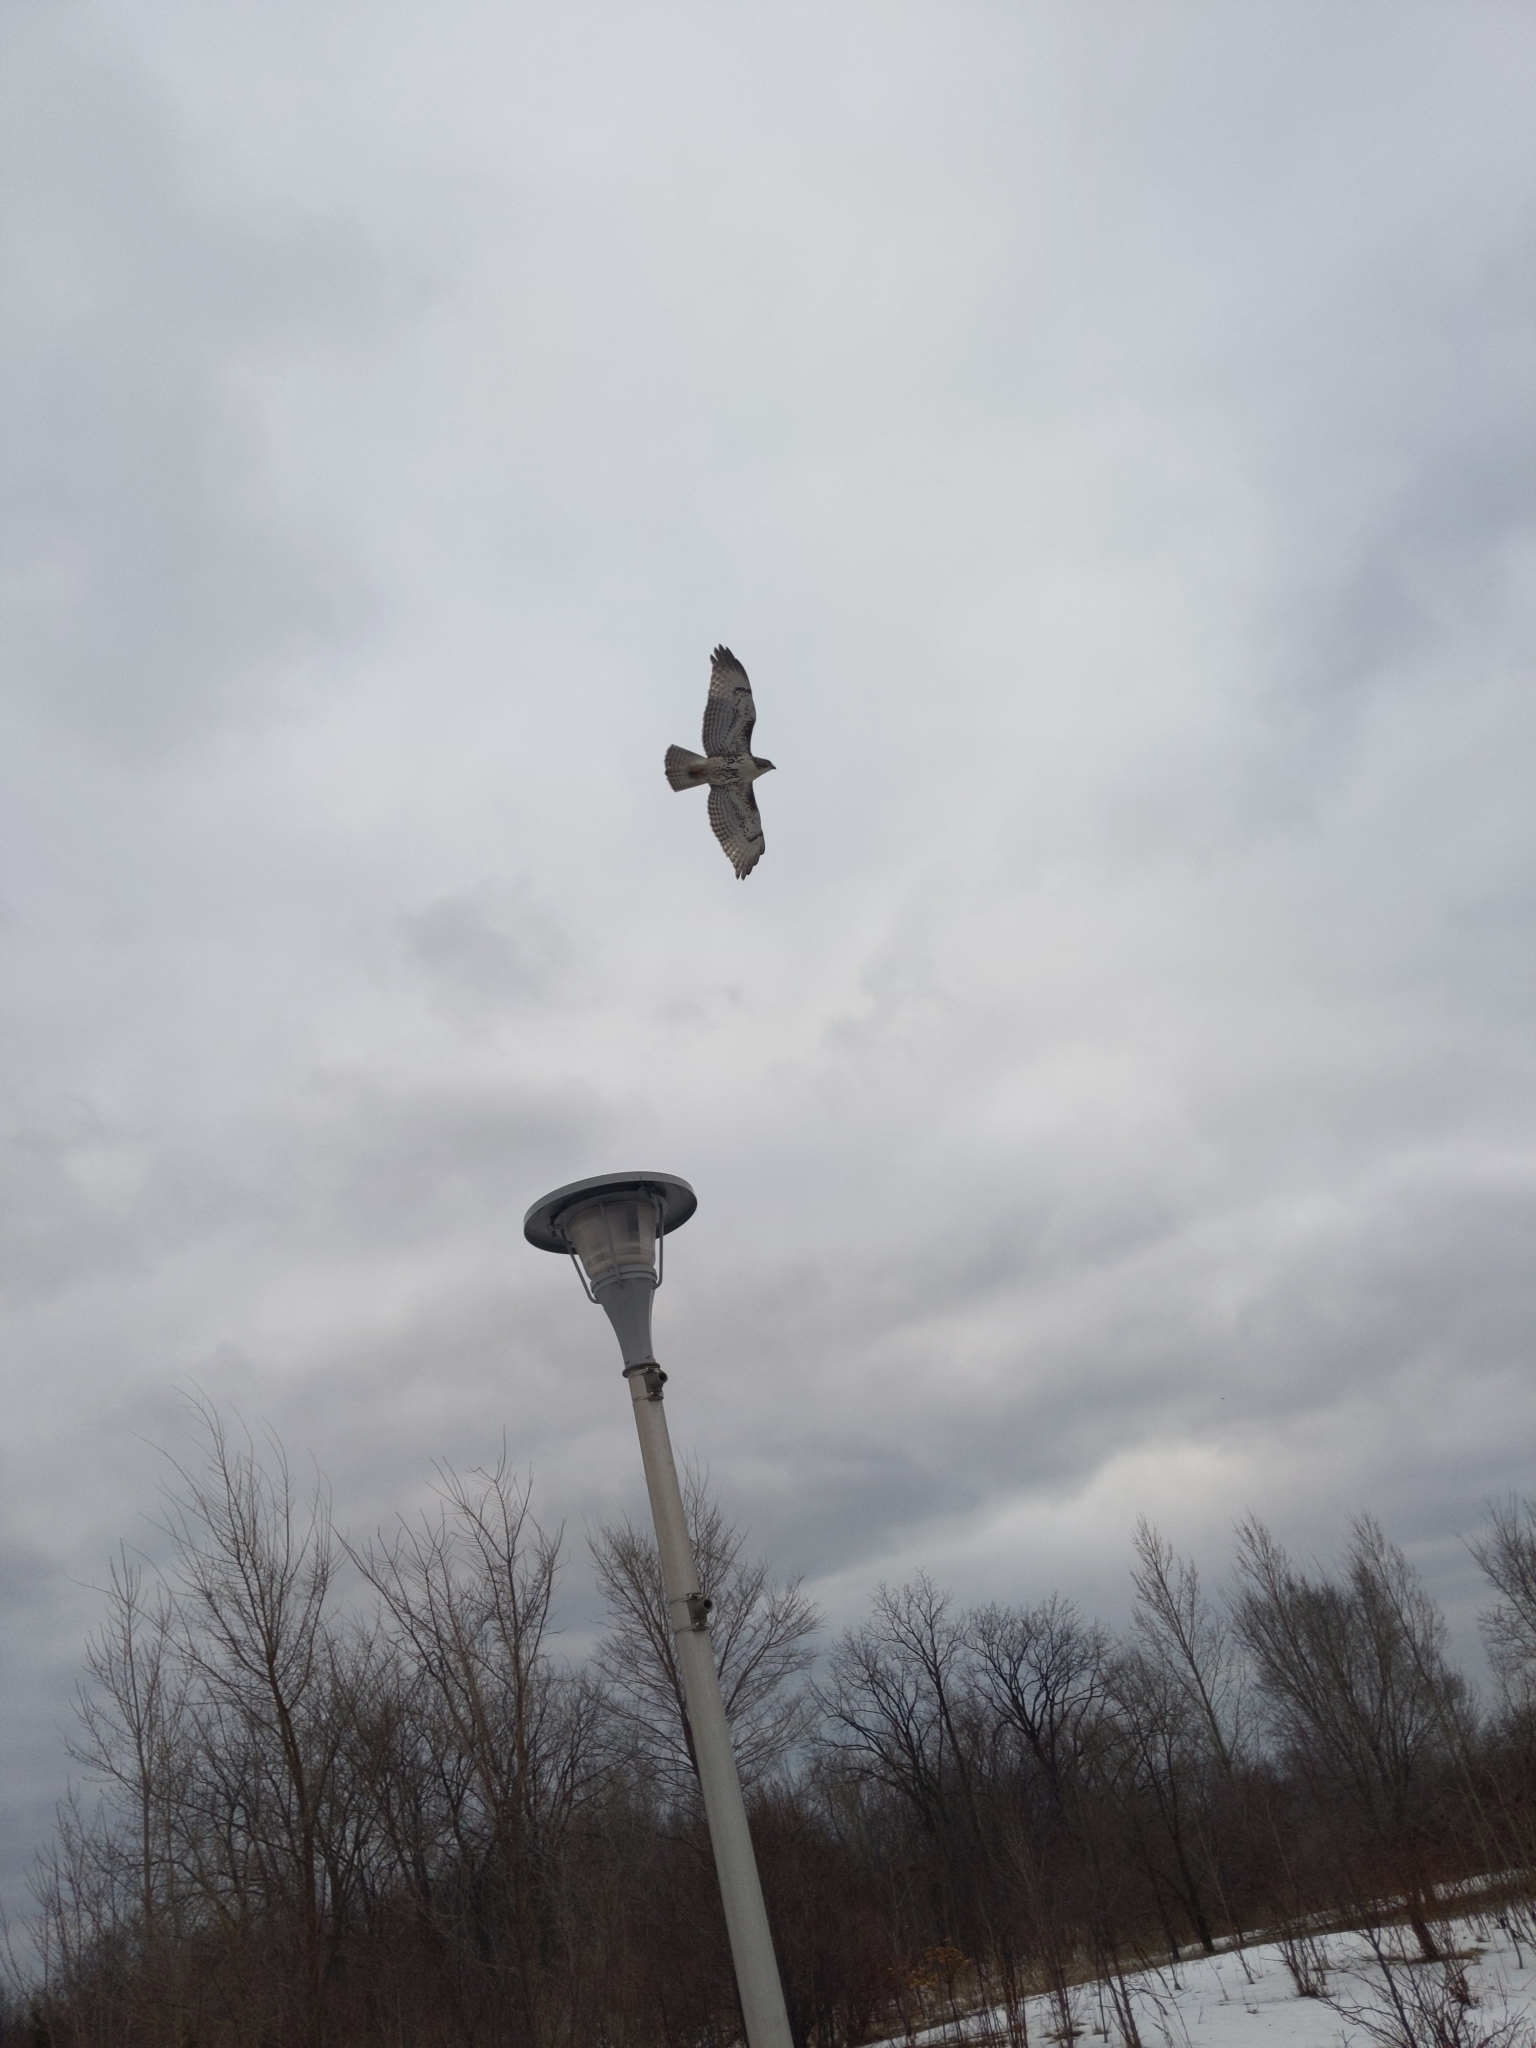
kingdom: Animalia
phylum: Chordata
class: Aves
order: Accipitriformes
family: Accipitridae
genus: Buteo
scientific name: Buteo jamaicensis
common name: Red-tailed hawk
